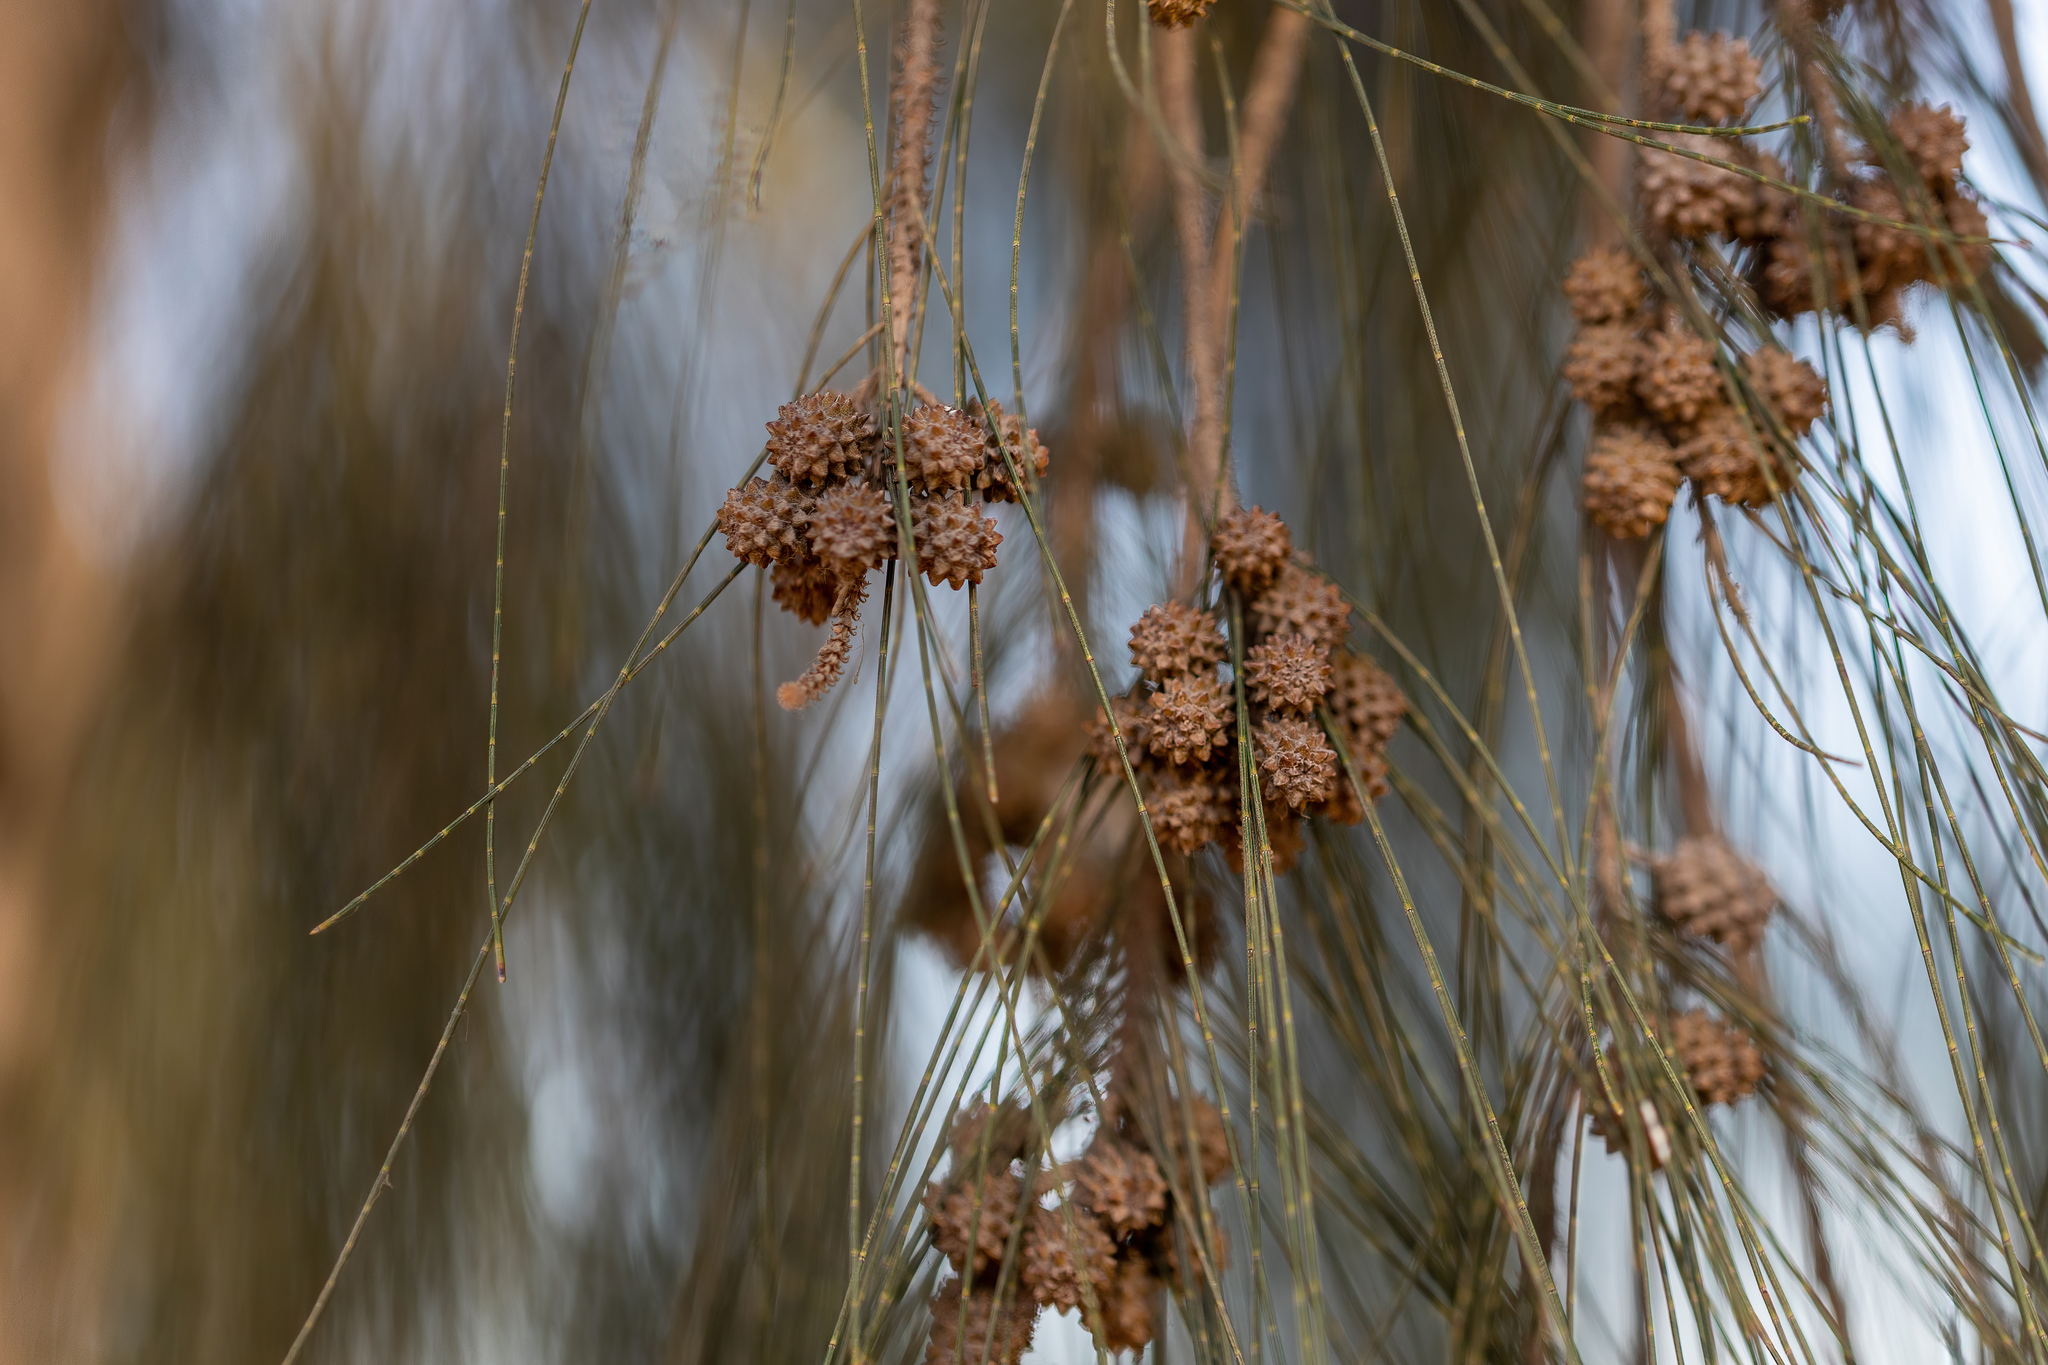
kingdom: Plantae
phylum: Tracheophyta
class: Magnoliopsida
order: Fagales
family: Casuarinaceae
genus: Casuarina
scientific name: Casuarina equisetifolia
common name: Beach sheoak
